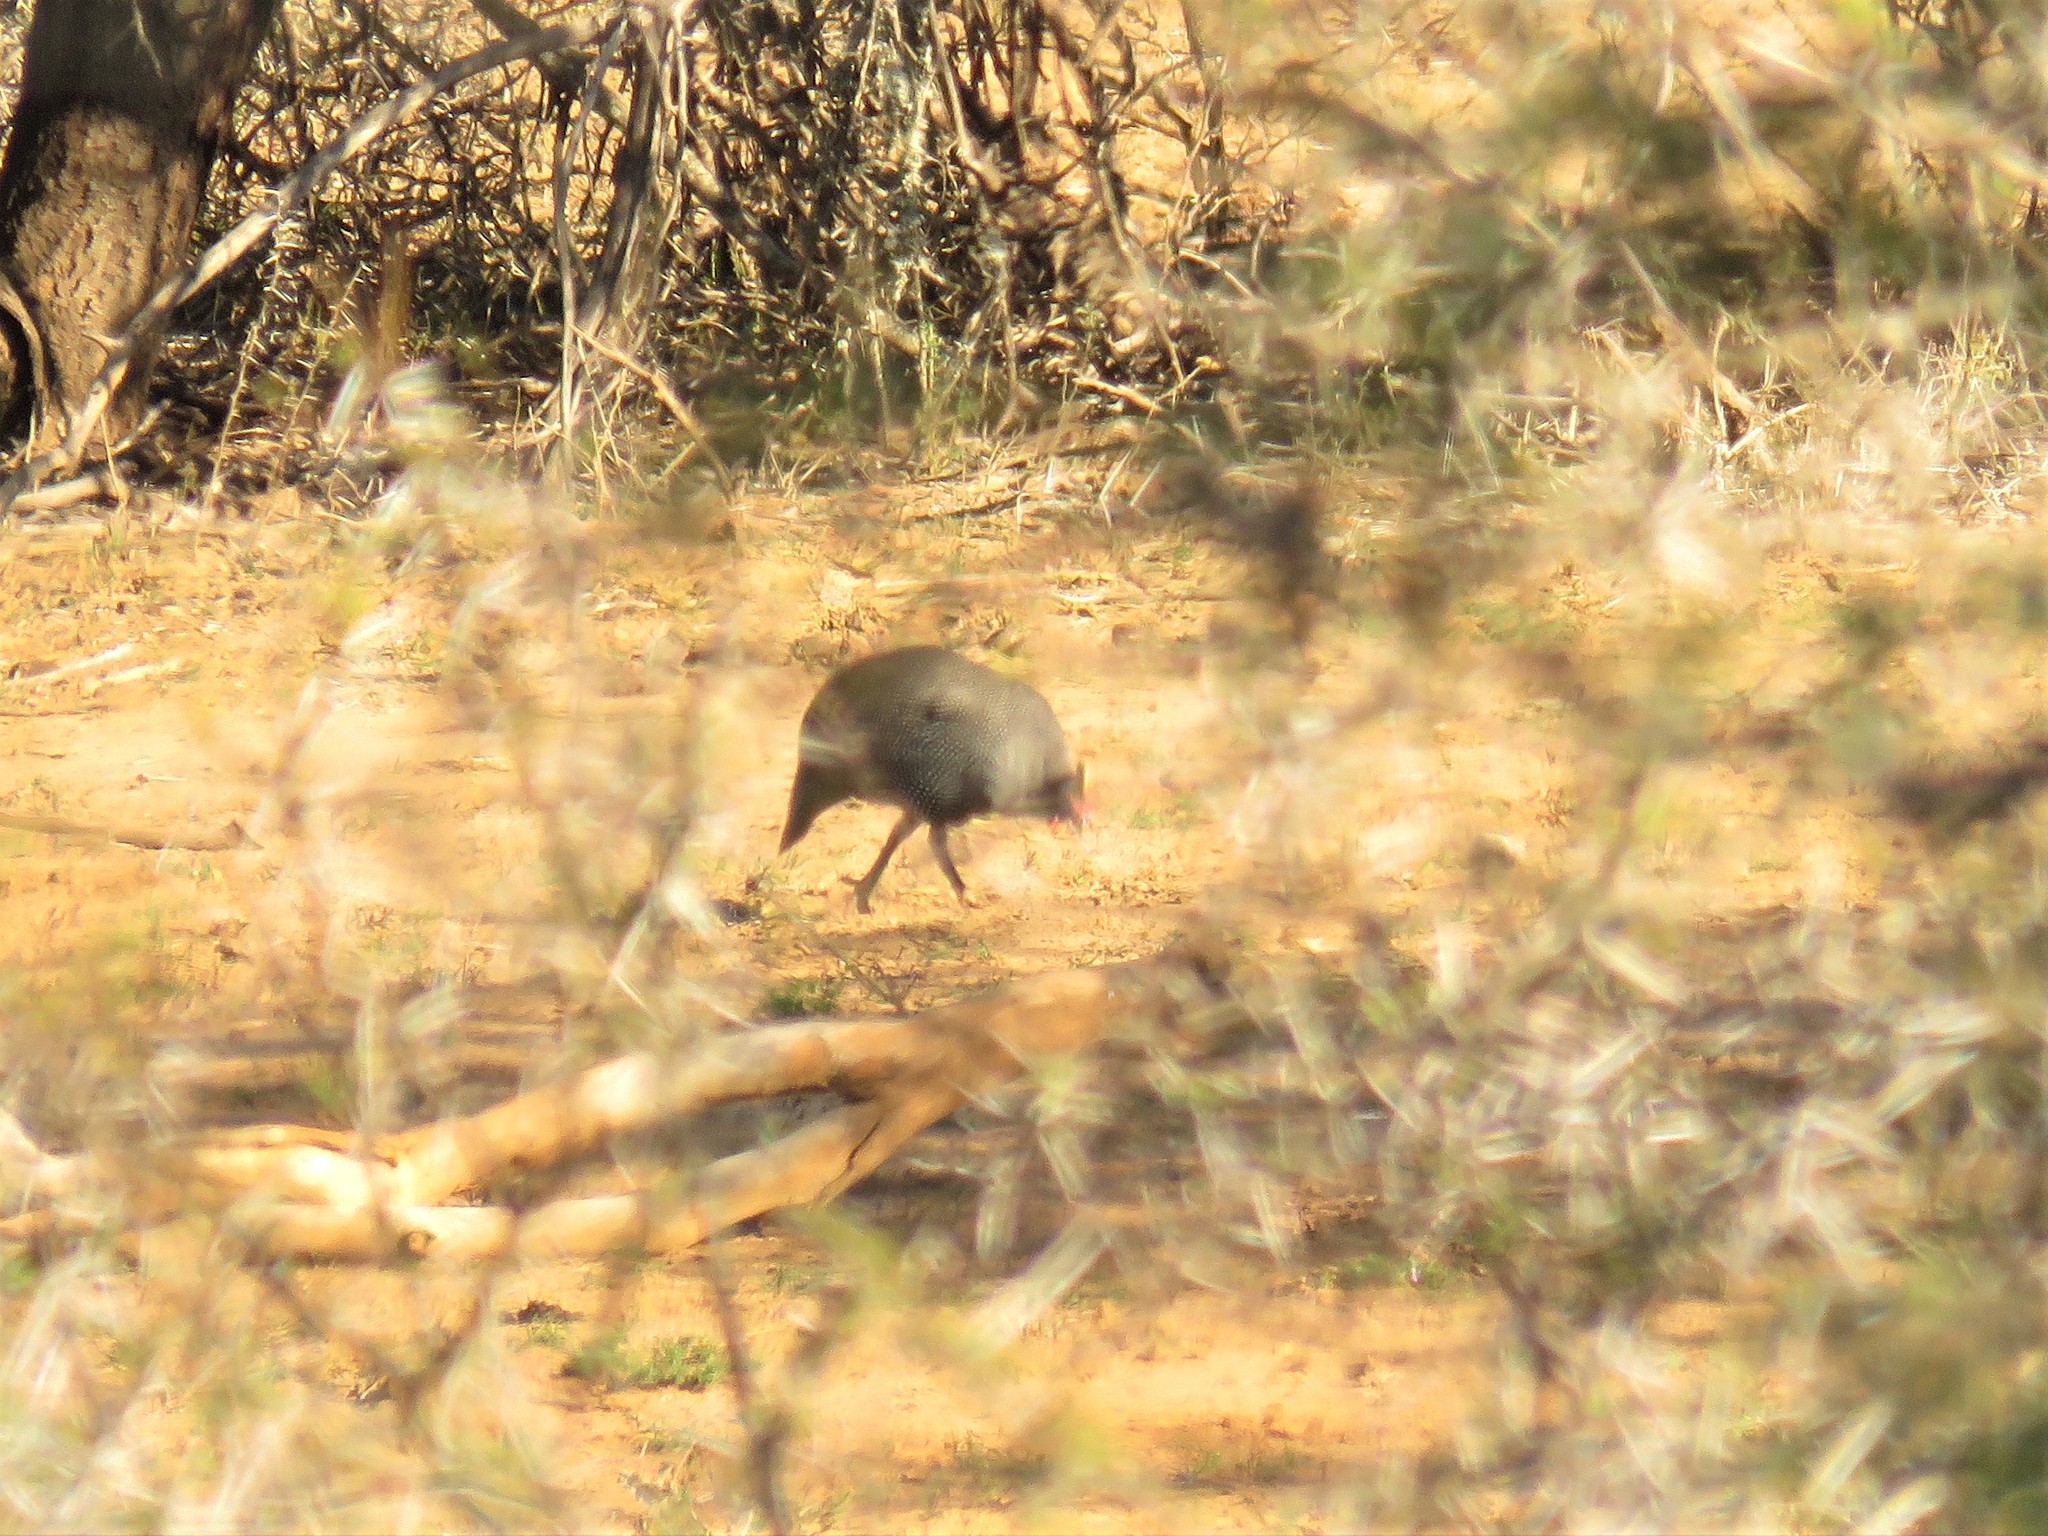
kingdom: Animalia
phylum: Chordata
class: Aves
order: Galliformes
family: Numididae
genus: Numida
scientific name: Numida meleagris
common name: Helmeted guineafowl
